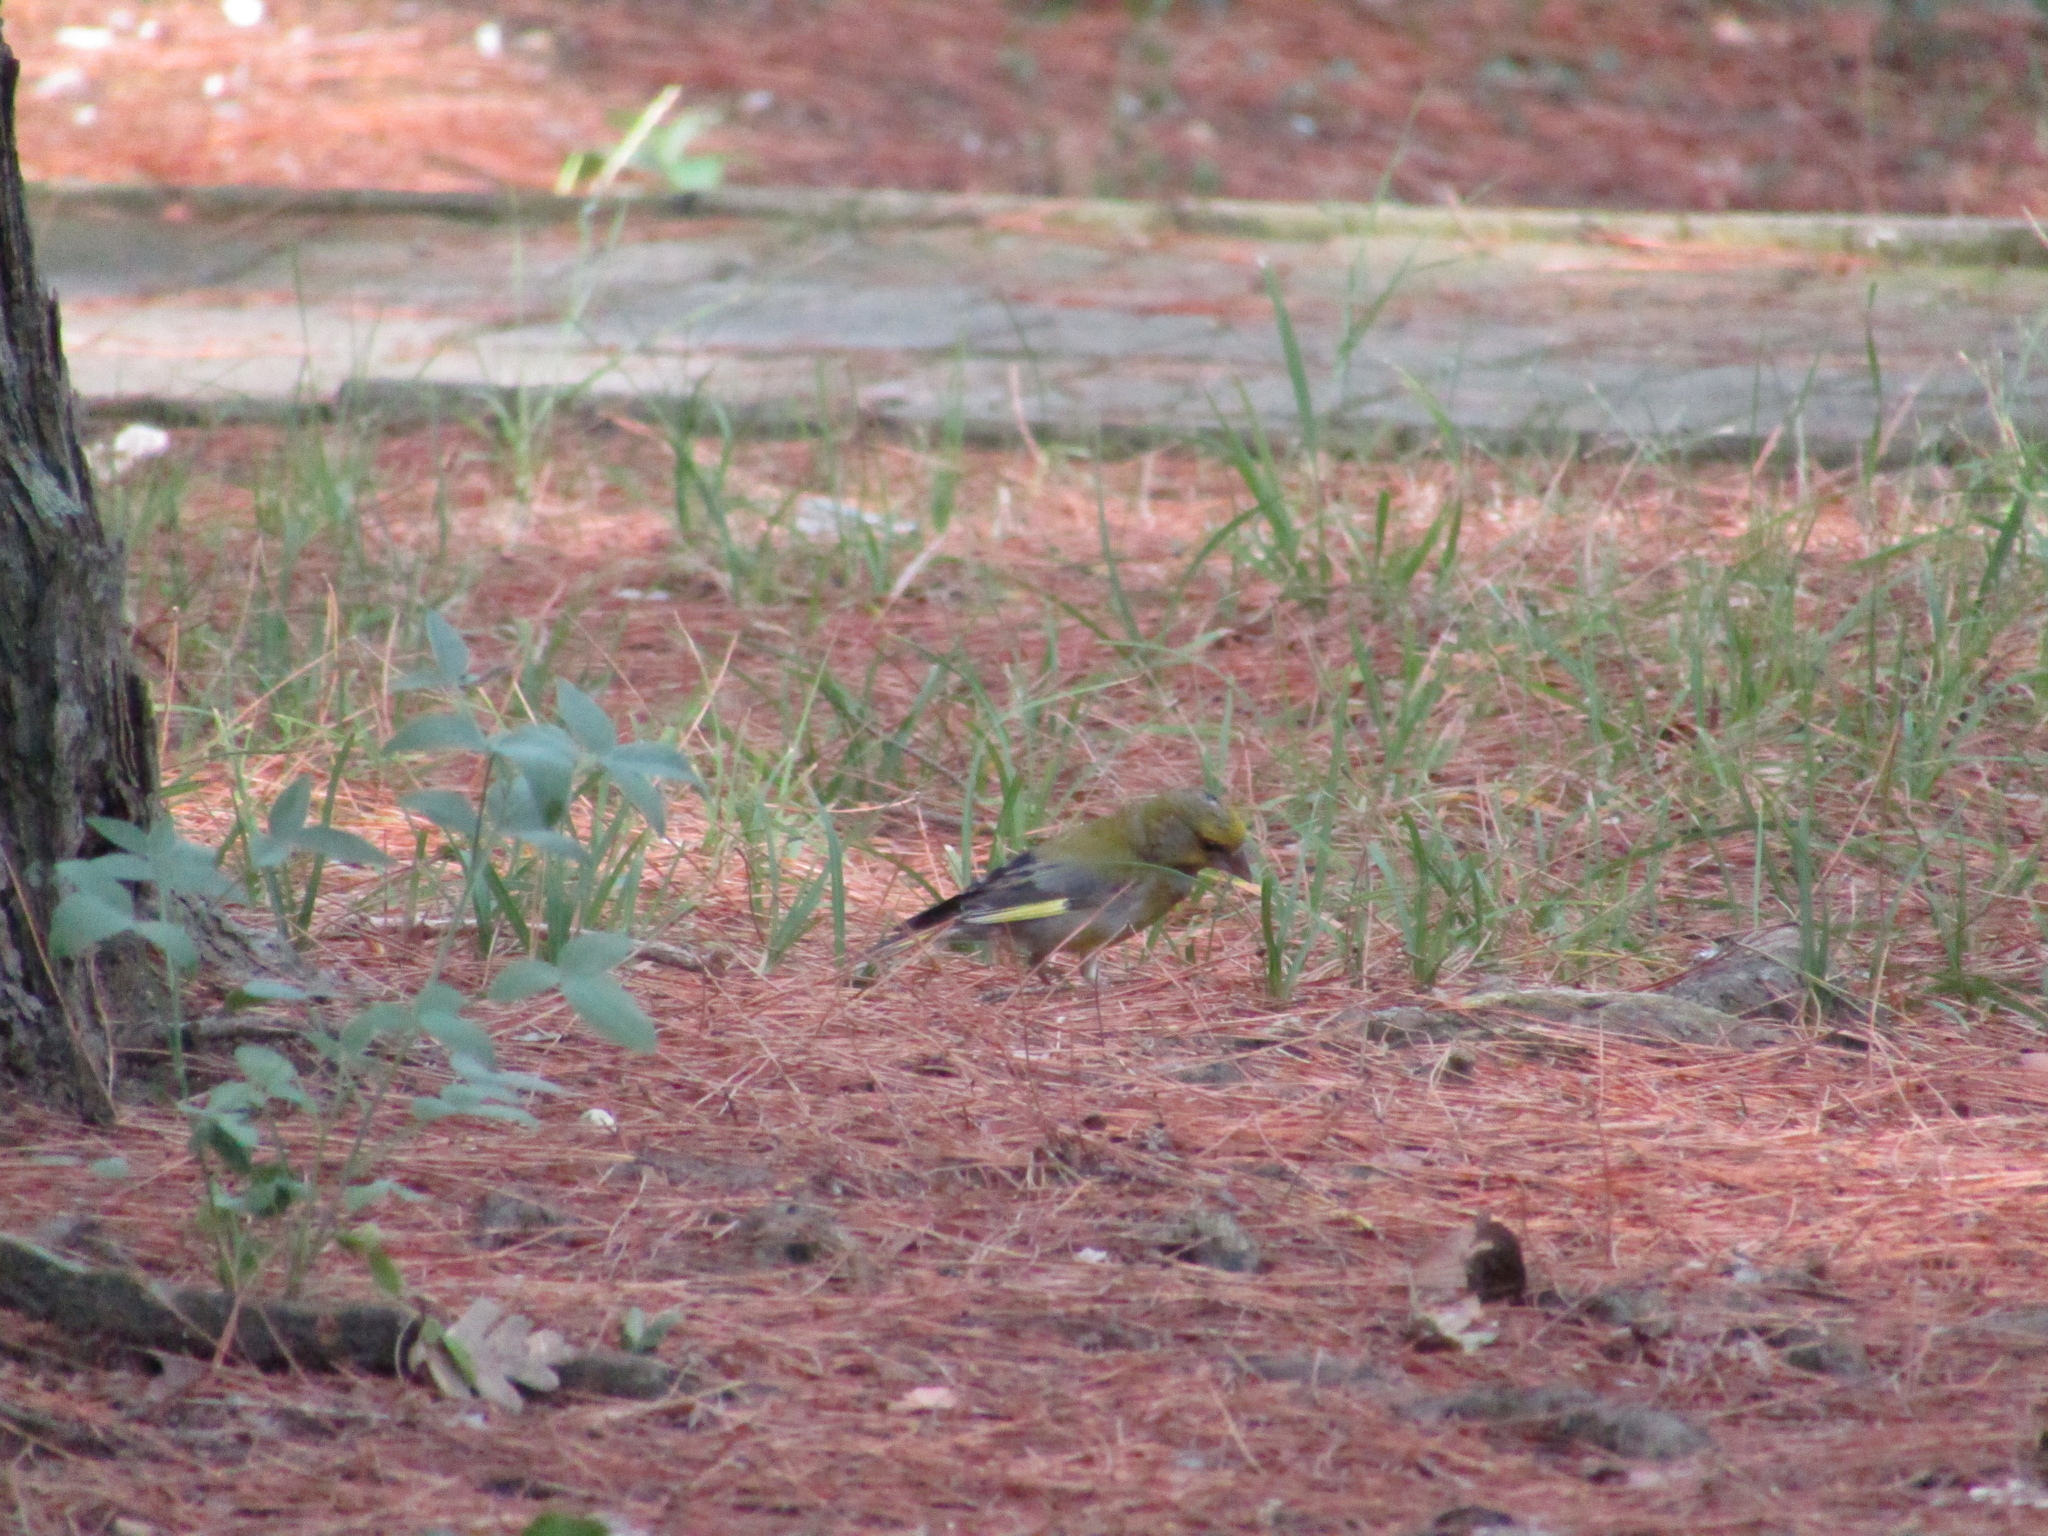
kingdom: Plantae
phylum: Tracheophyta
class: Liliopsida
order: Poales
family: Poaceae
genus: Chloris
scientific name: Chloris chloris
